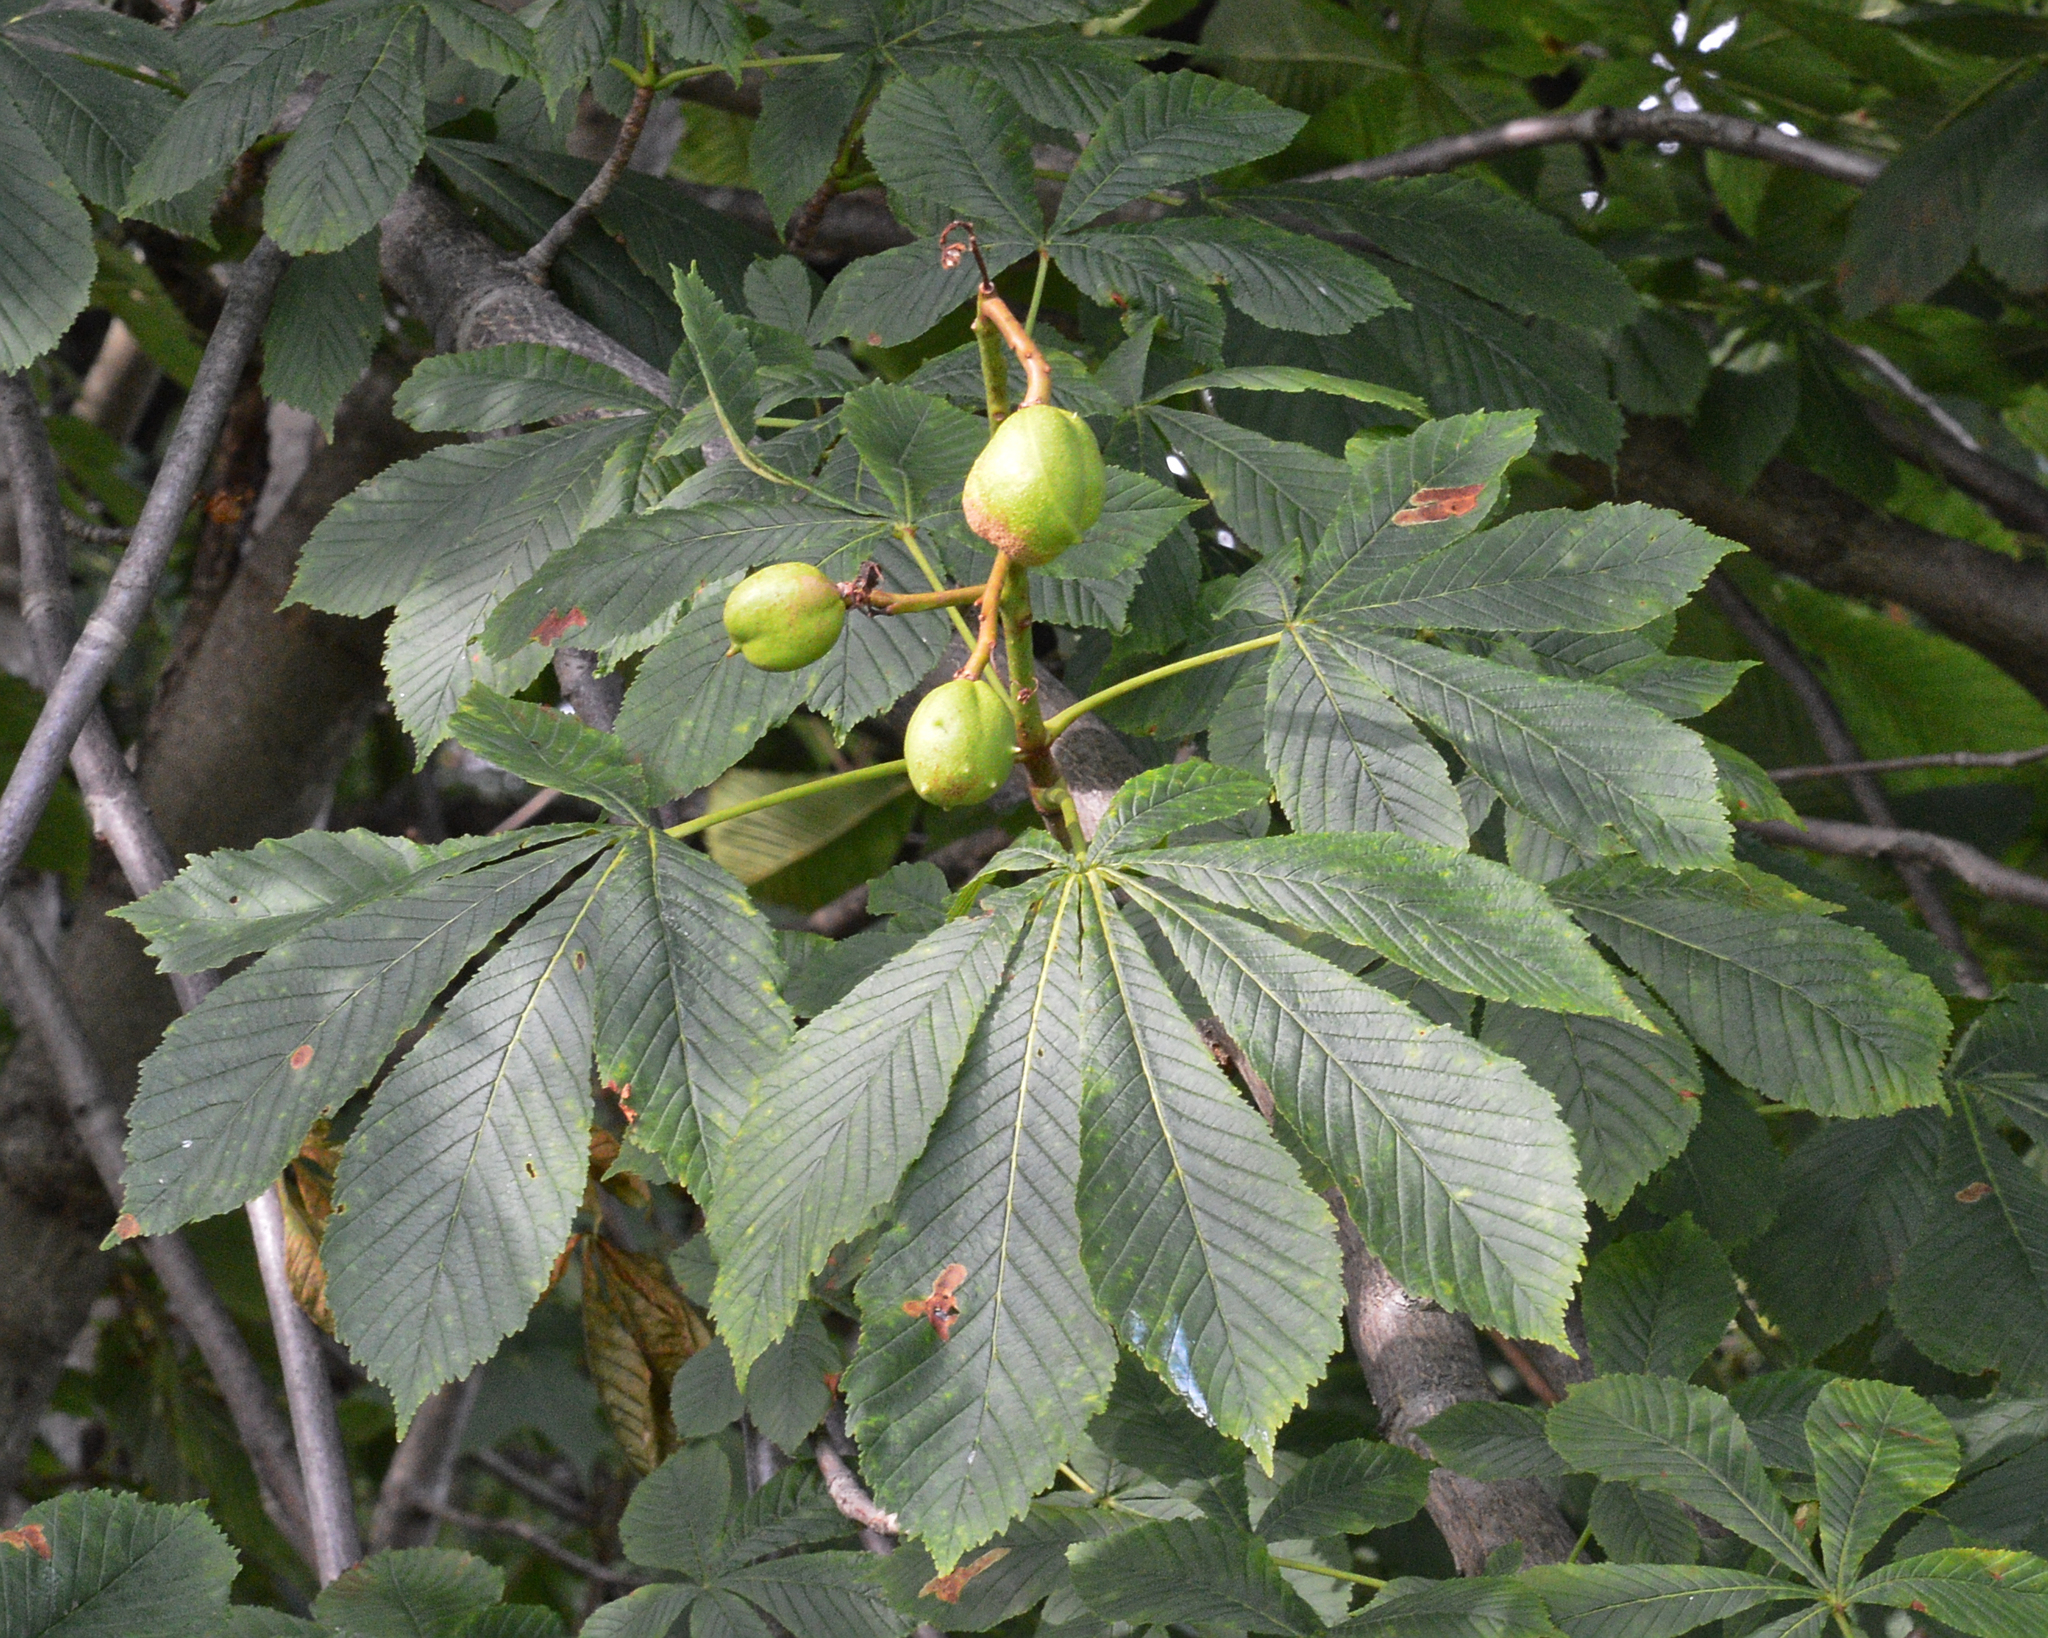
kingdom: Plantae
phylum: Tracheophyta
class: Magnoliopsida
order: Sapindales
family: Sapindaceae
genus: Aesculus
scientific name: Aesculus hippocastanum
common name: Horse-chestnut
